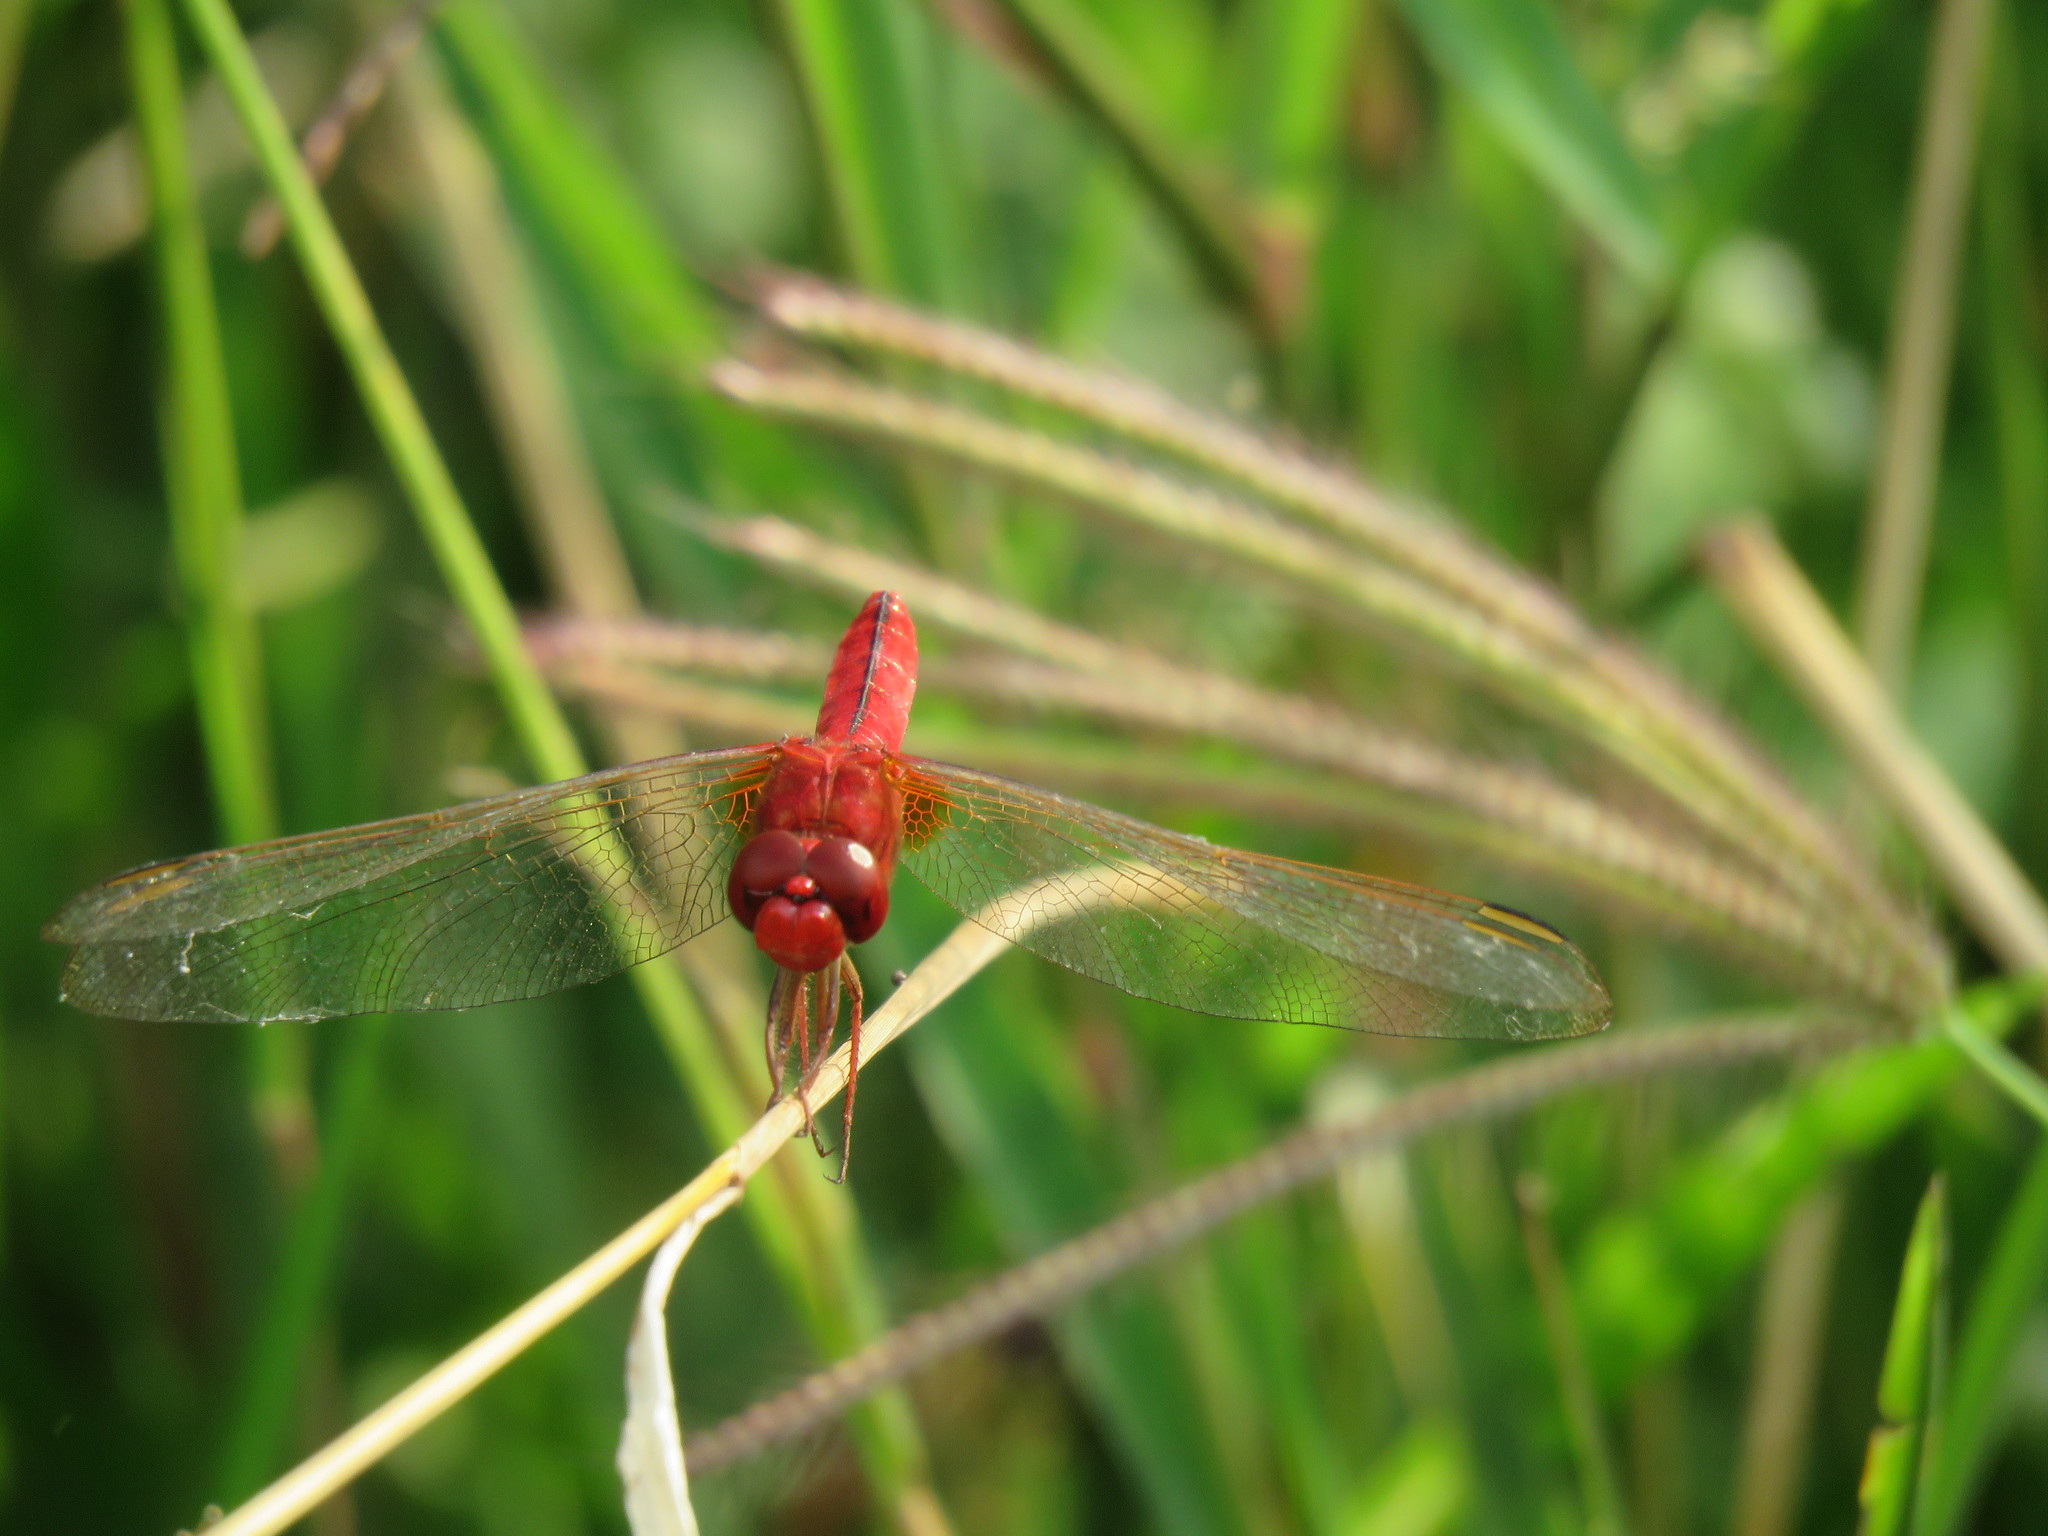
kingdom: Animalia
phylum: Arthropoda
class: Insecta
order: Odonata
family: Libellulidae
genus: Crocothemis
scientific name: Crocothemis servilia
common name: Scarlet skimmer
